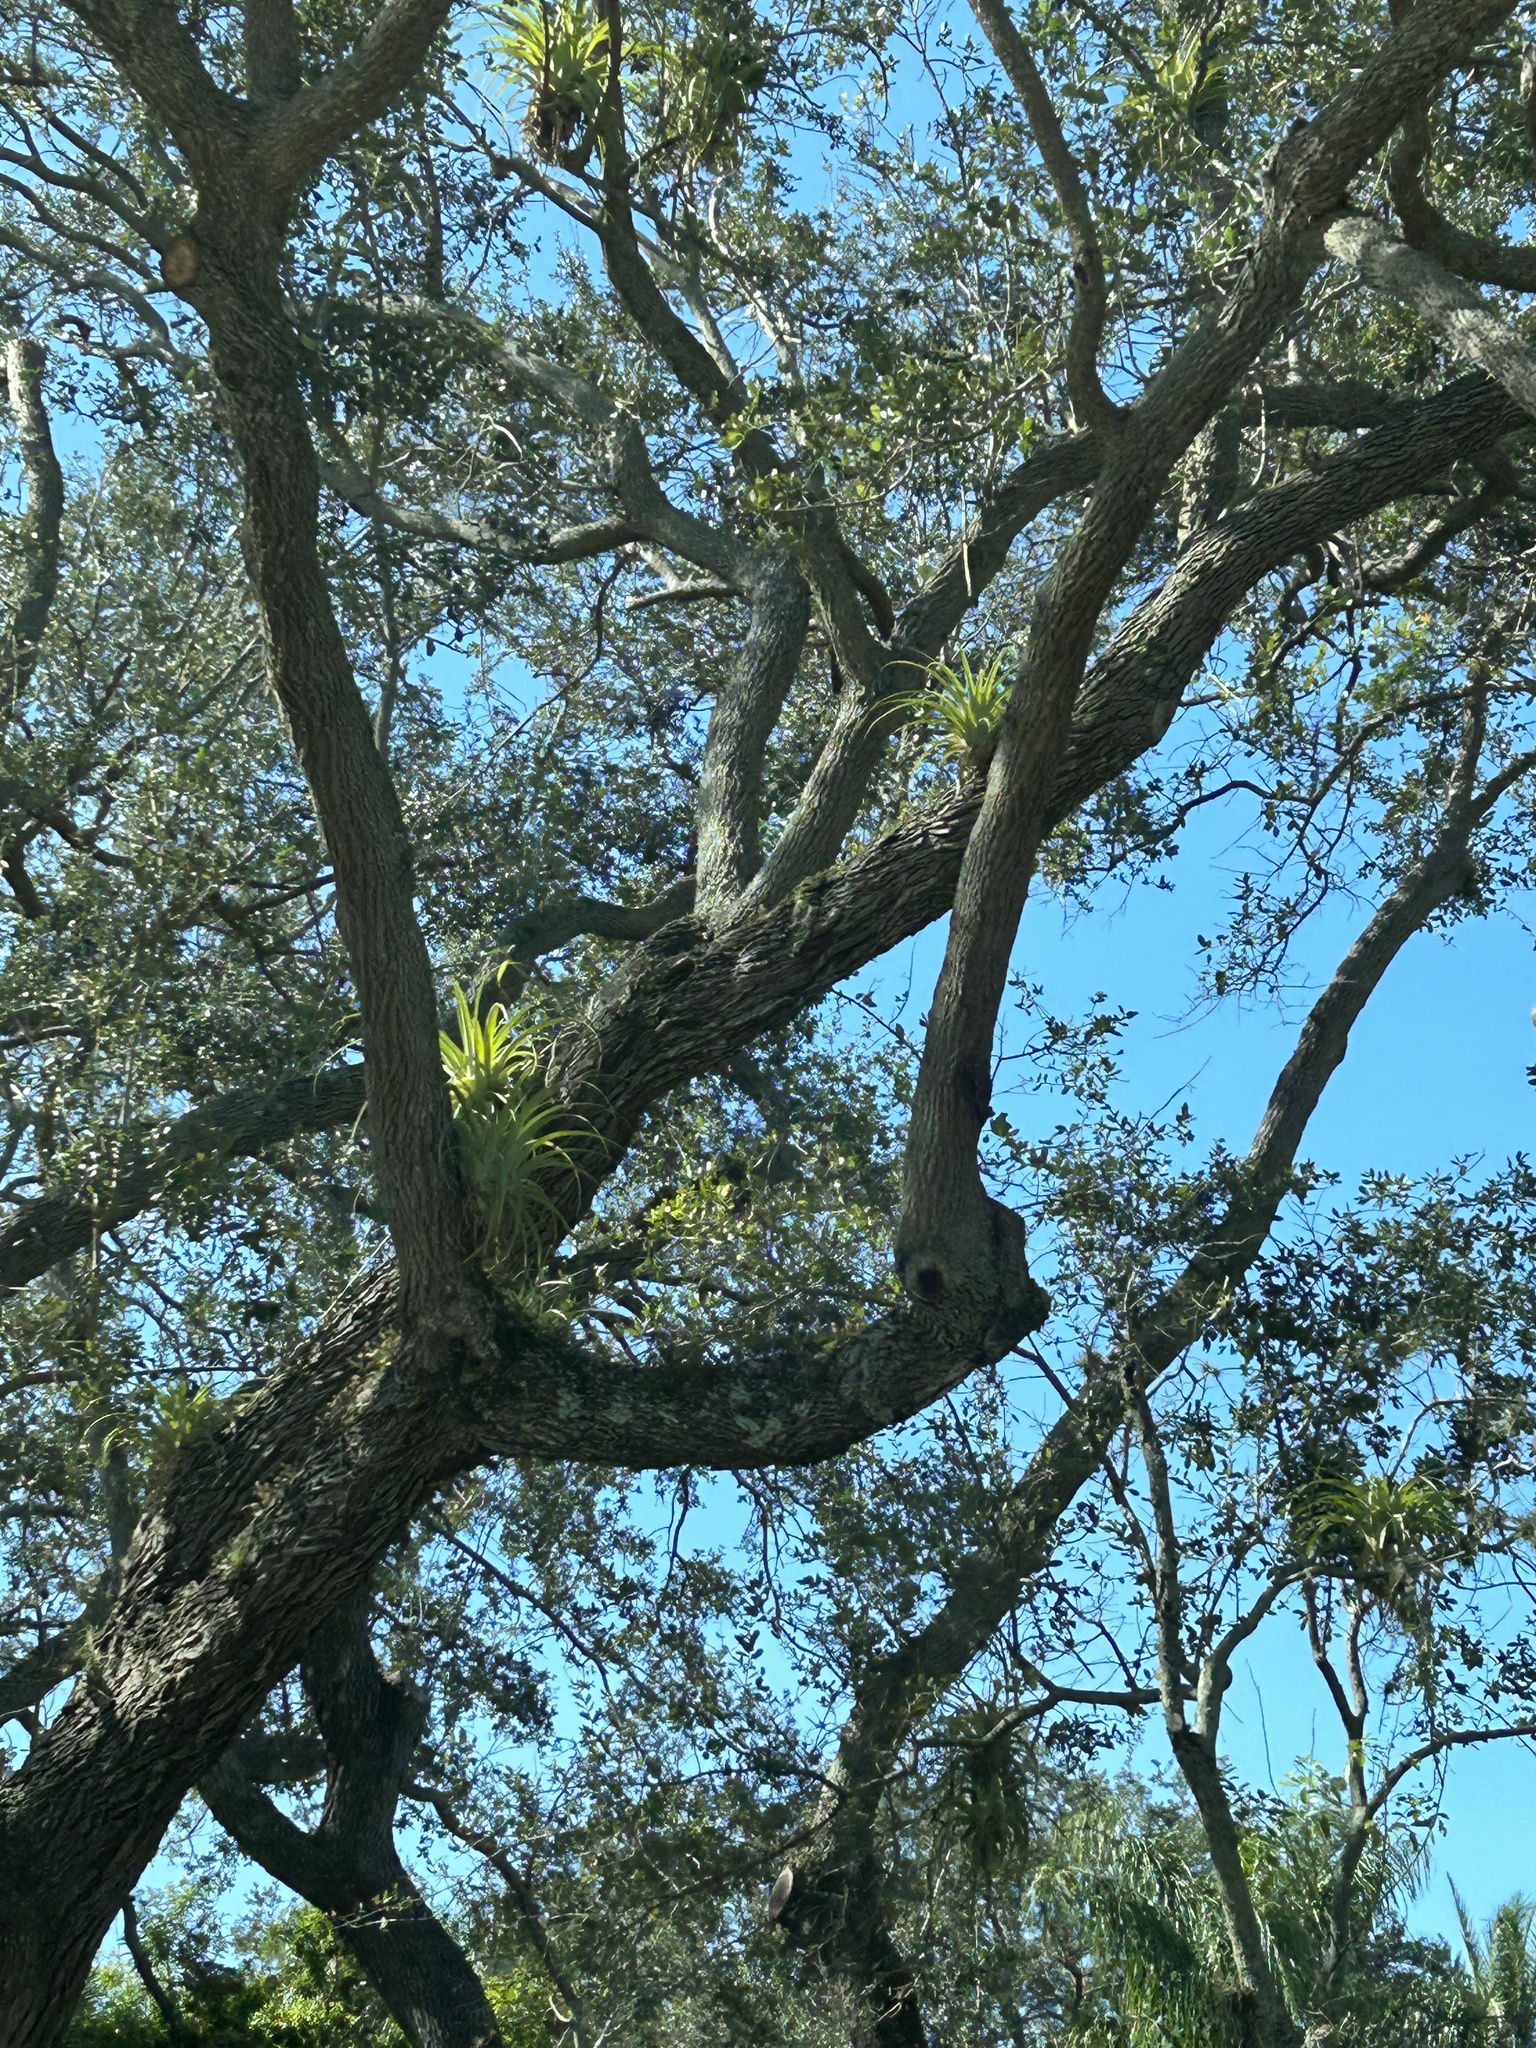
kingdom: Plantae
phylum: Tracheophyta
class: Liliopsida
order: Poales
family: Bromeliaceae
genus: Tillandsia
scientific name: Tillandsia utriculata
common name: Wild pine
